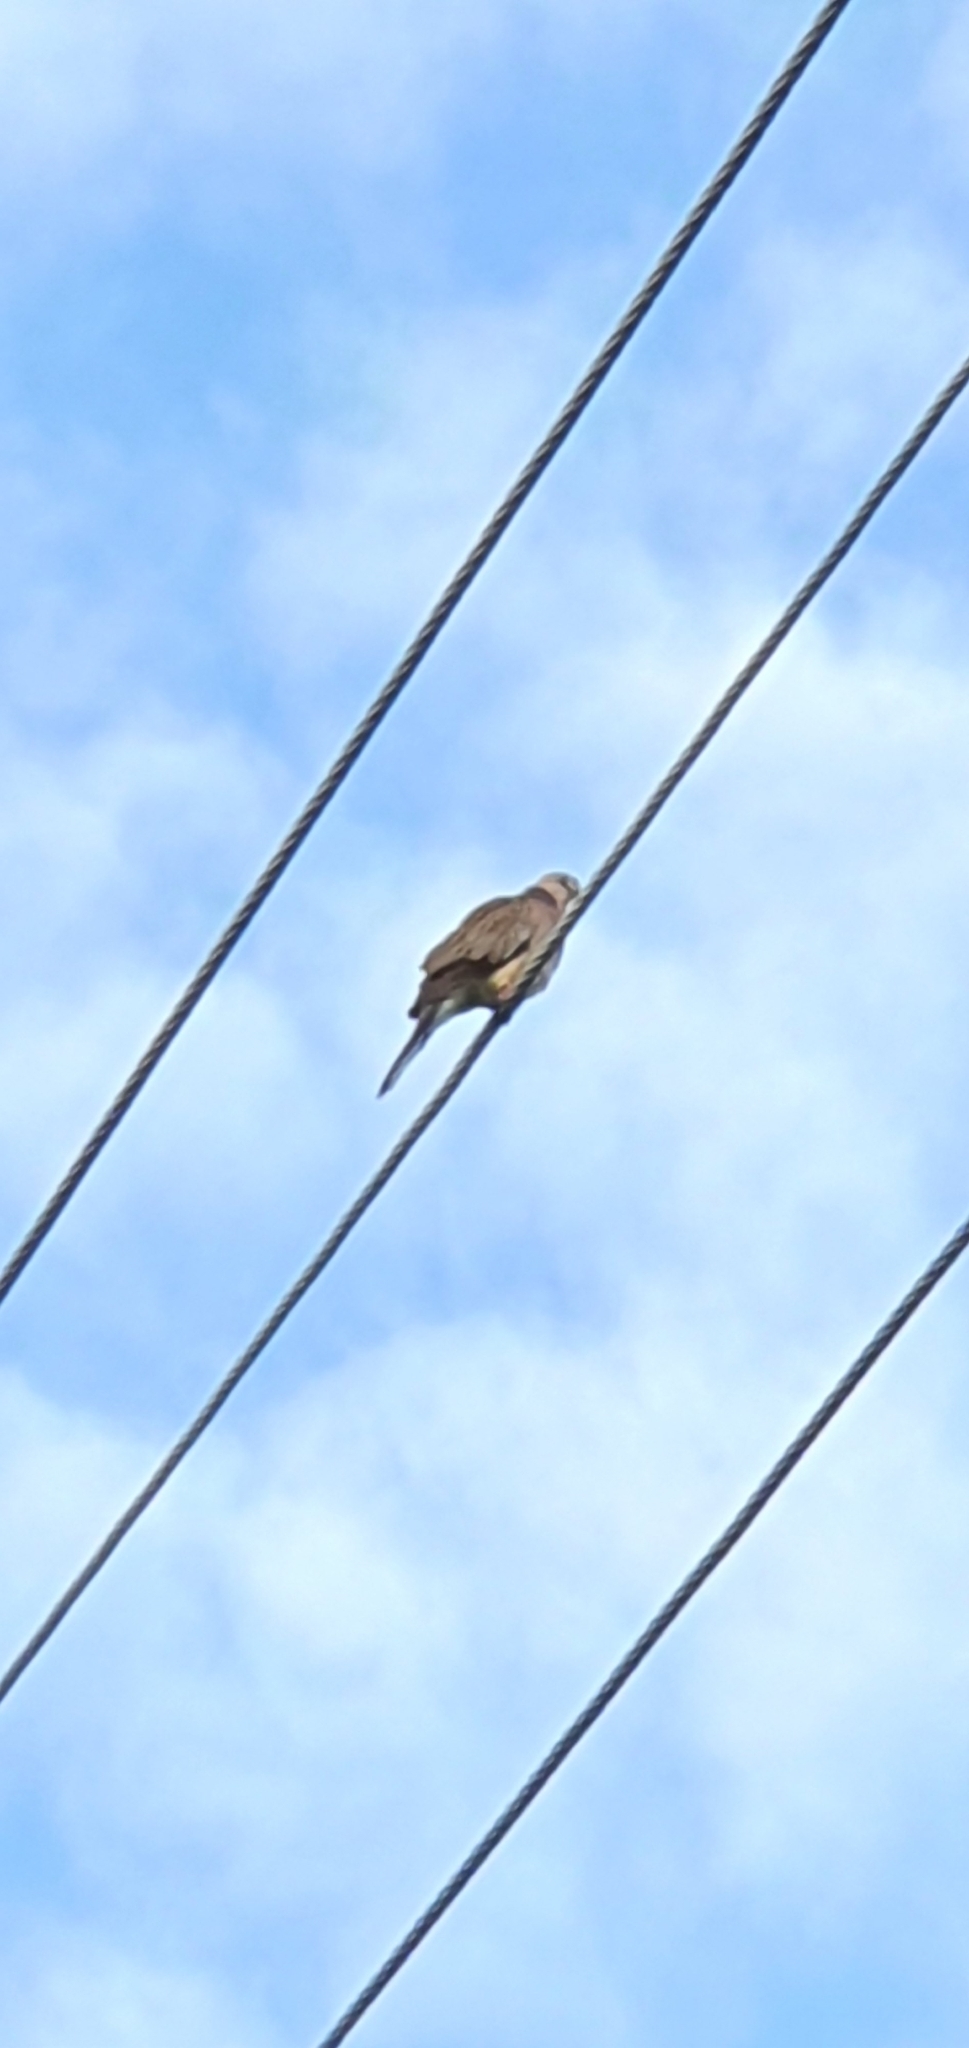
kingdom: Animalia
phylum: Chordata
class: Aves
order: Columbiformes
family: Columbidae
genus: Spilopelia
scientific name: Spilopelia chinensis
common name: Spotted dove
